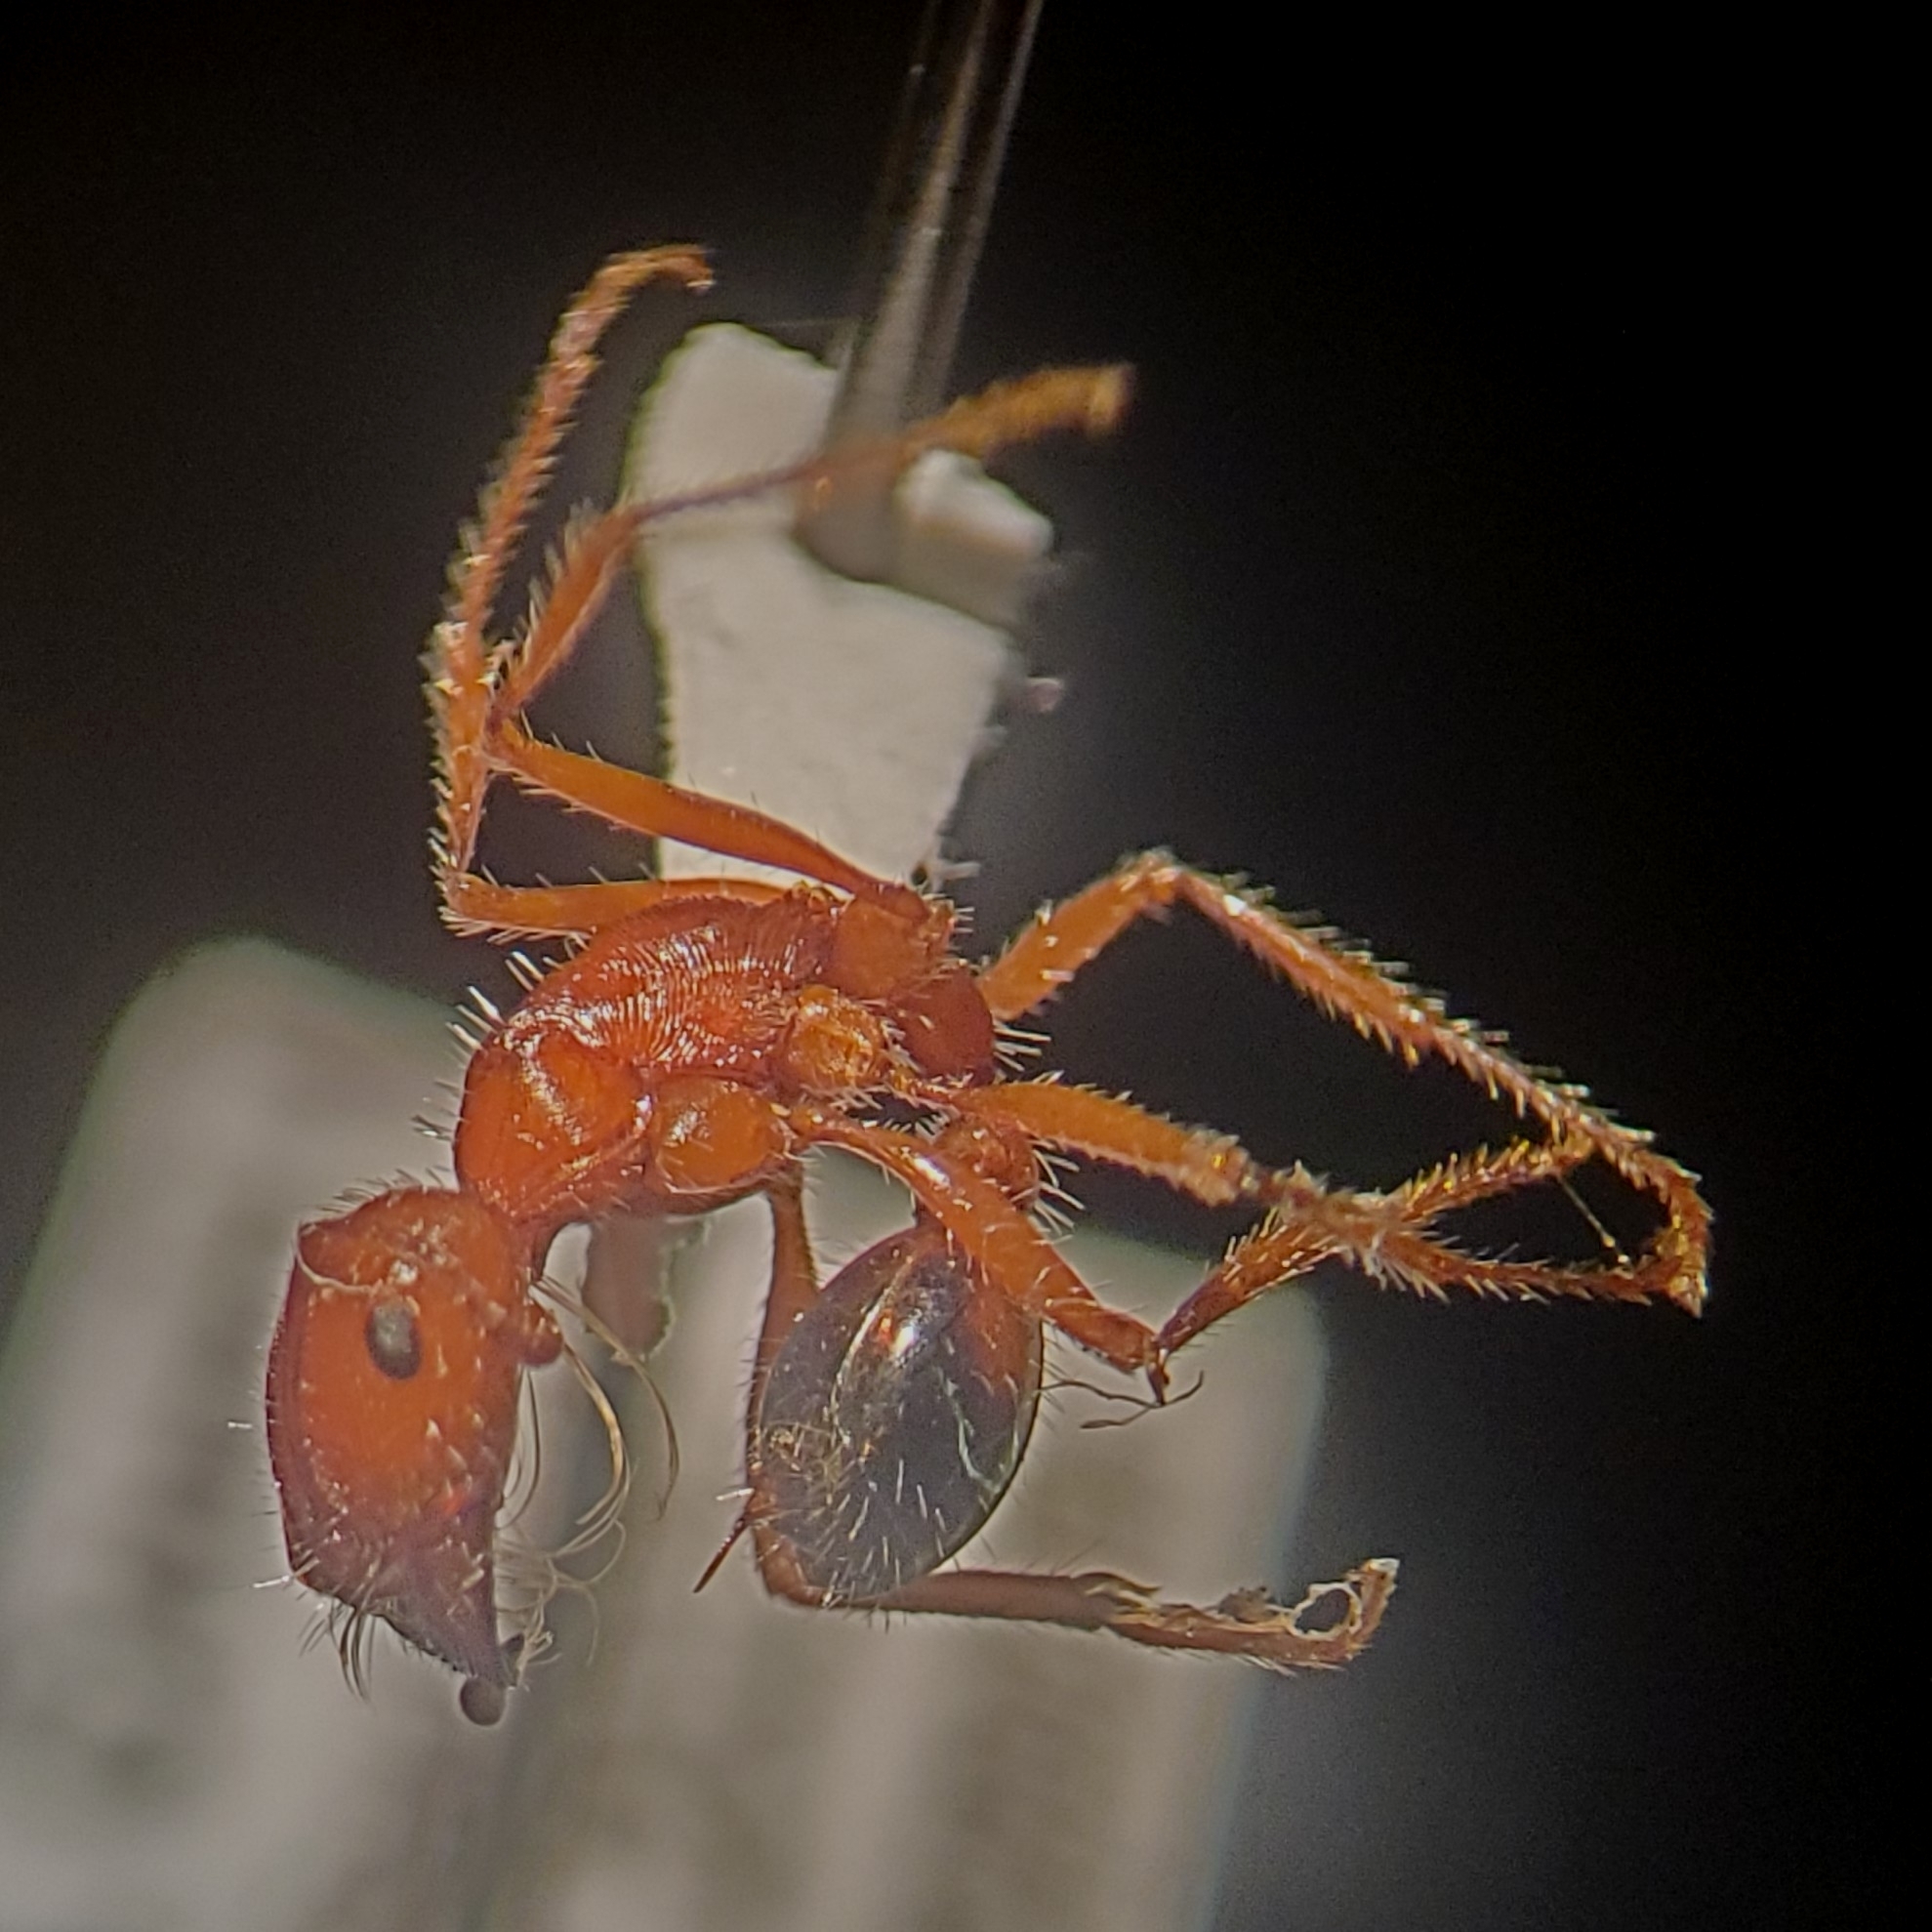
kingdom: Animalia
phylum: Arthropoda
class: Insecta
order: Hymenoptera
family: Formicidae
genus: Pogonomyrmex
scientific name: Pogonomyrmex californicus
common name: California harvester ant
